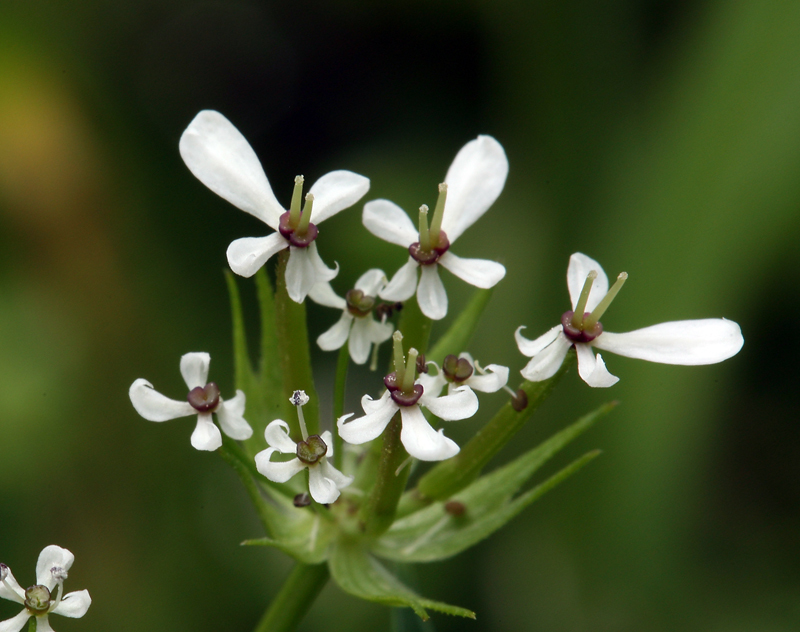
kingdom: Plantae
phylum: Tracheophyta
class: Magnoliopsida
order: Apiales
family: Apiaceae
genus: Scandix
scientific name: Scandix pecten-veneris
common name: Shepherd's-needle
